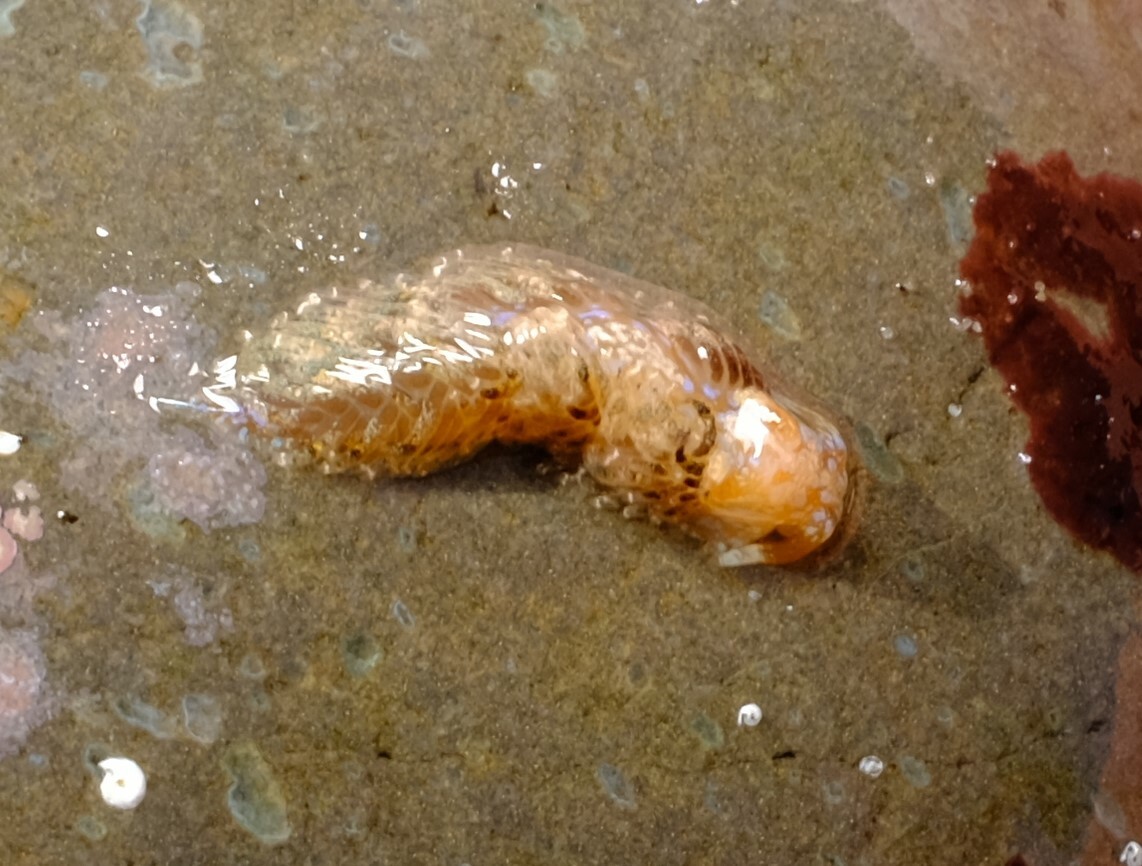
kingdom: Animalia
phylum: Mollusca
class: Gastropoda
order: Nudibranchia
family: Facelinidae
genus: Austraeolis
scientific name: Austraeolis ornata
